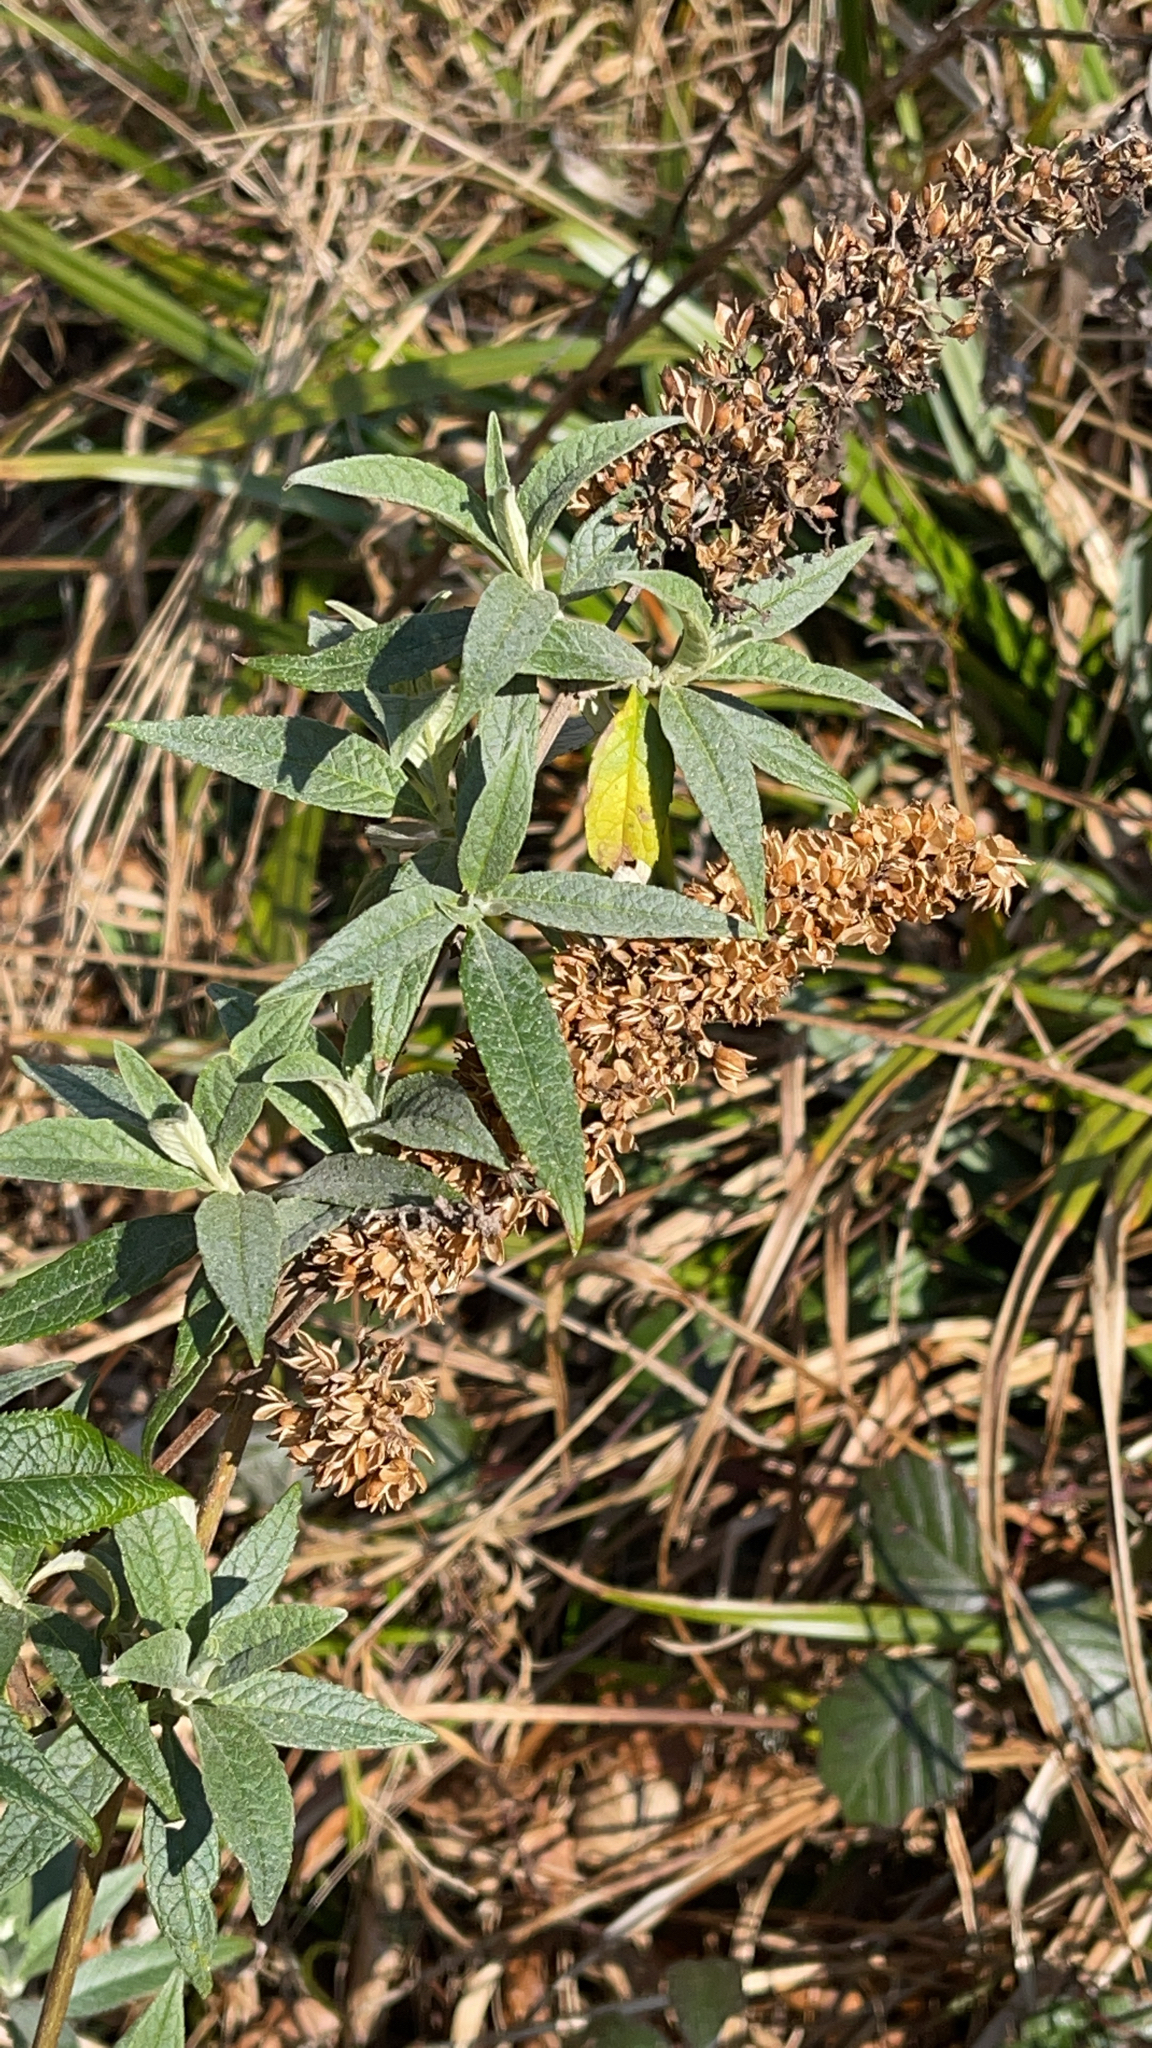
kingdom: Plantae
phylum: Tracheophyta
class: Magnoliopsida
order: Lamiales
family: Scrophulariaceae
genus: Buddleja
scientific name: Buddleja davidii
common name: Butterfly-bush
